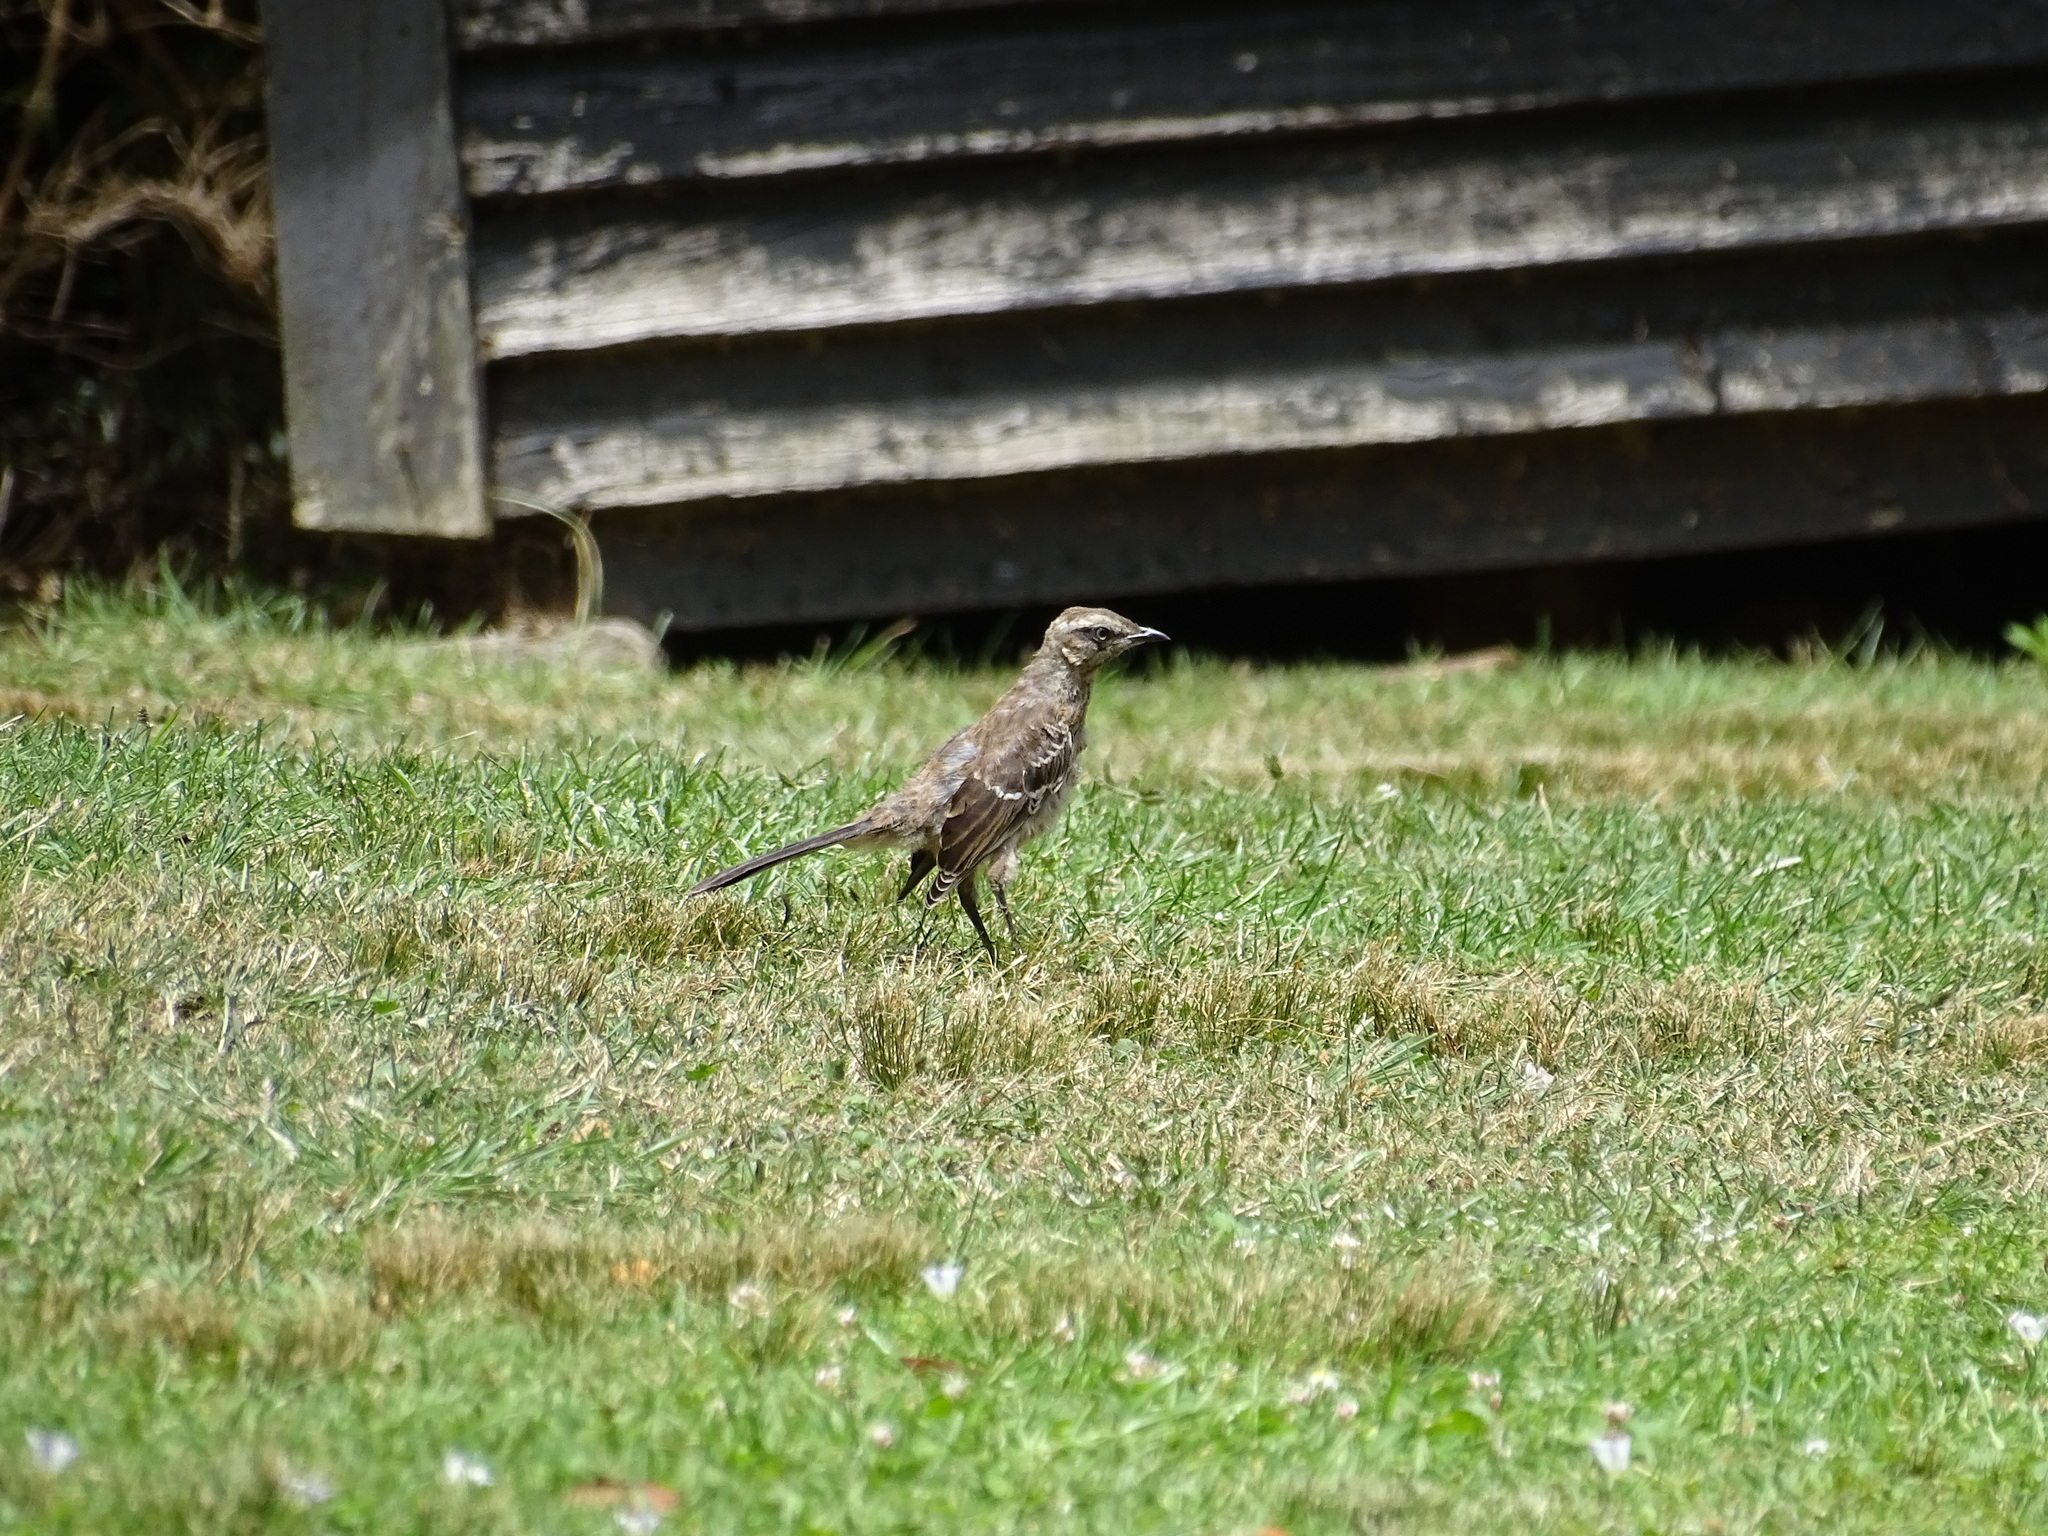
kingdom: Animalia
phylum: Chordata
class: Aves
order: Passeriformes
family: Mimidae
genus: Mimus
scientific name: Mimus thenca
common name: Chilean mockingbird
